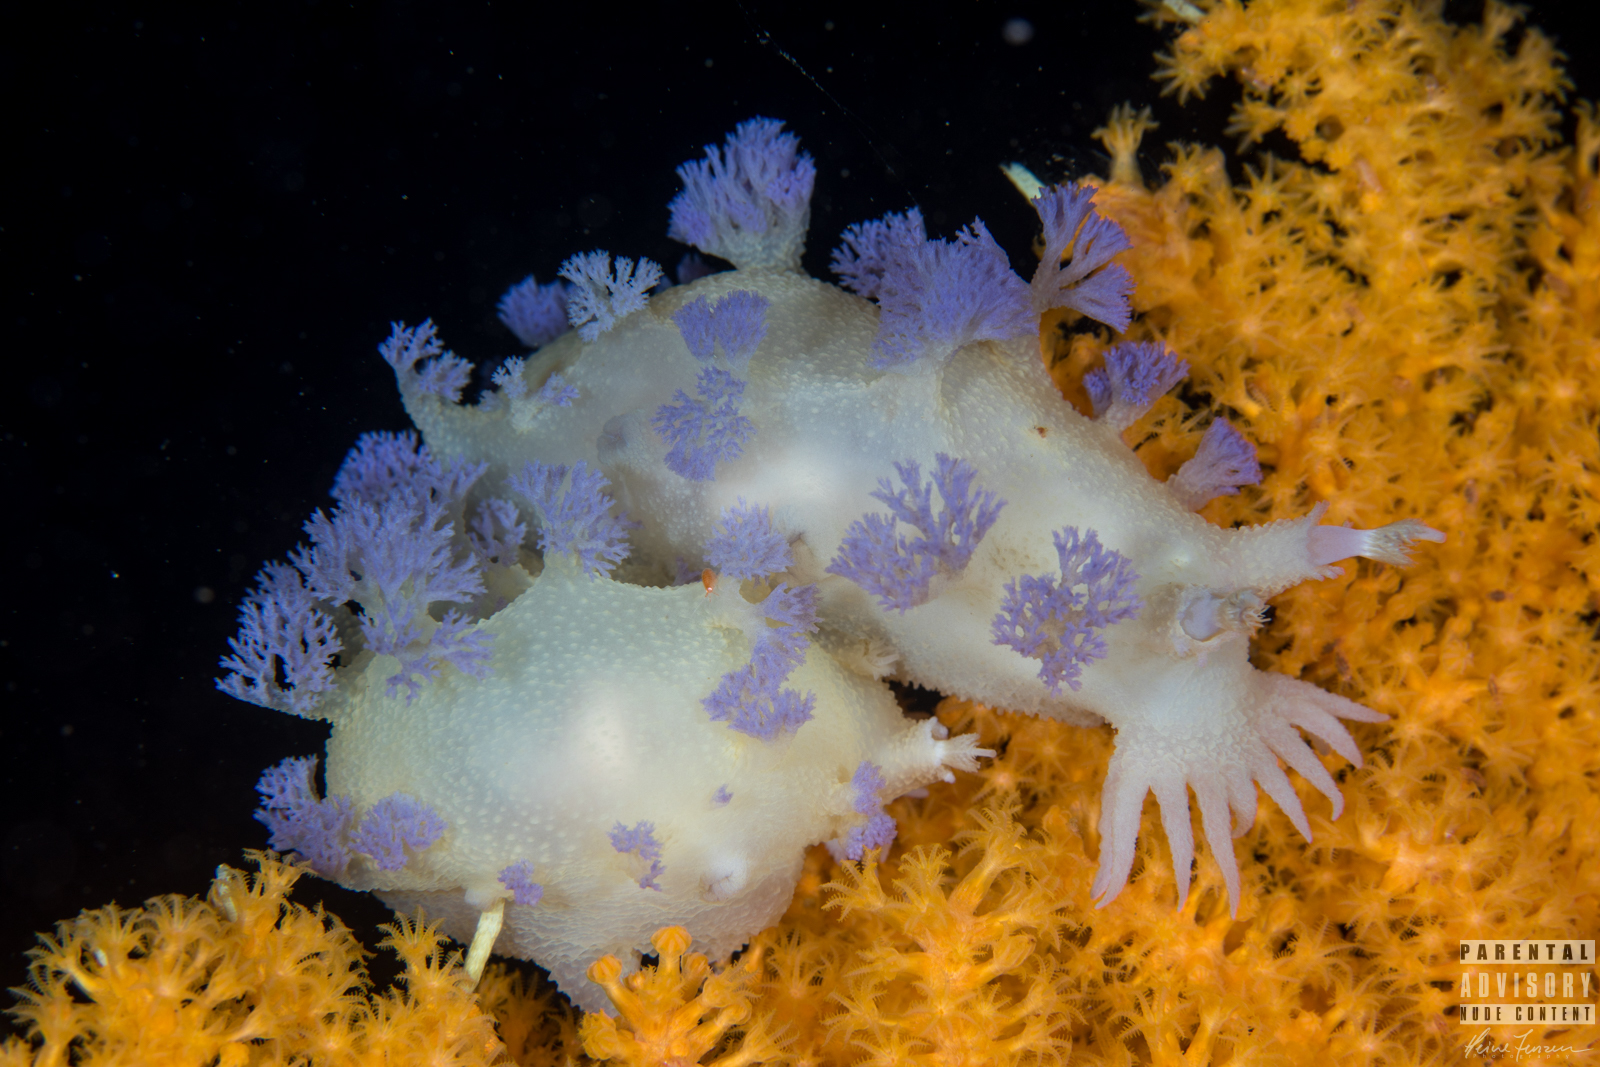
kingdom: Animalia
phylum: Mollusca
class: Gastropoda
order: Nudibranchia
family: Tritoniidae
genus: Tritonia
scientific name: Tritonia griegi
